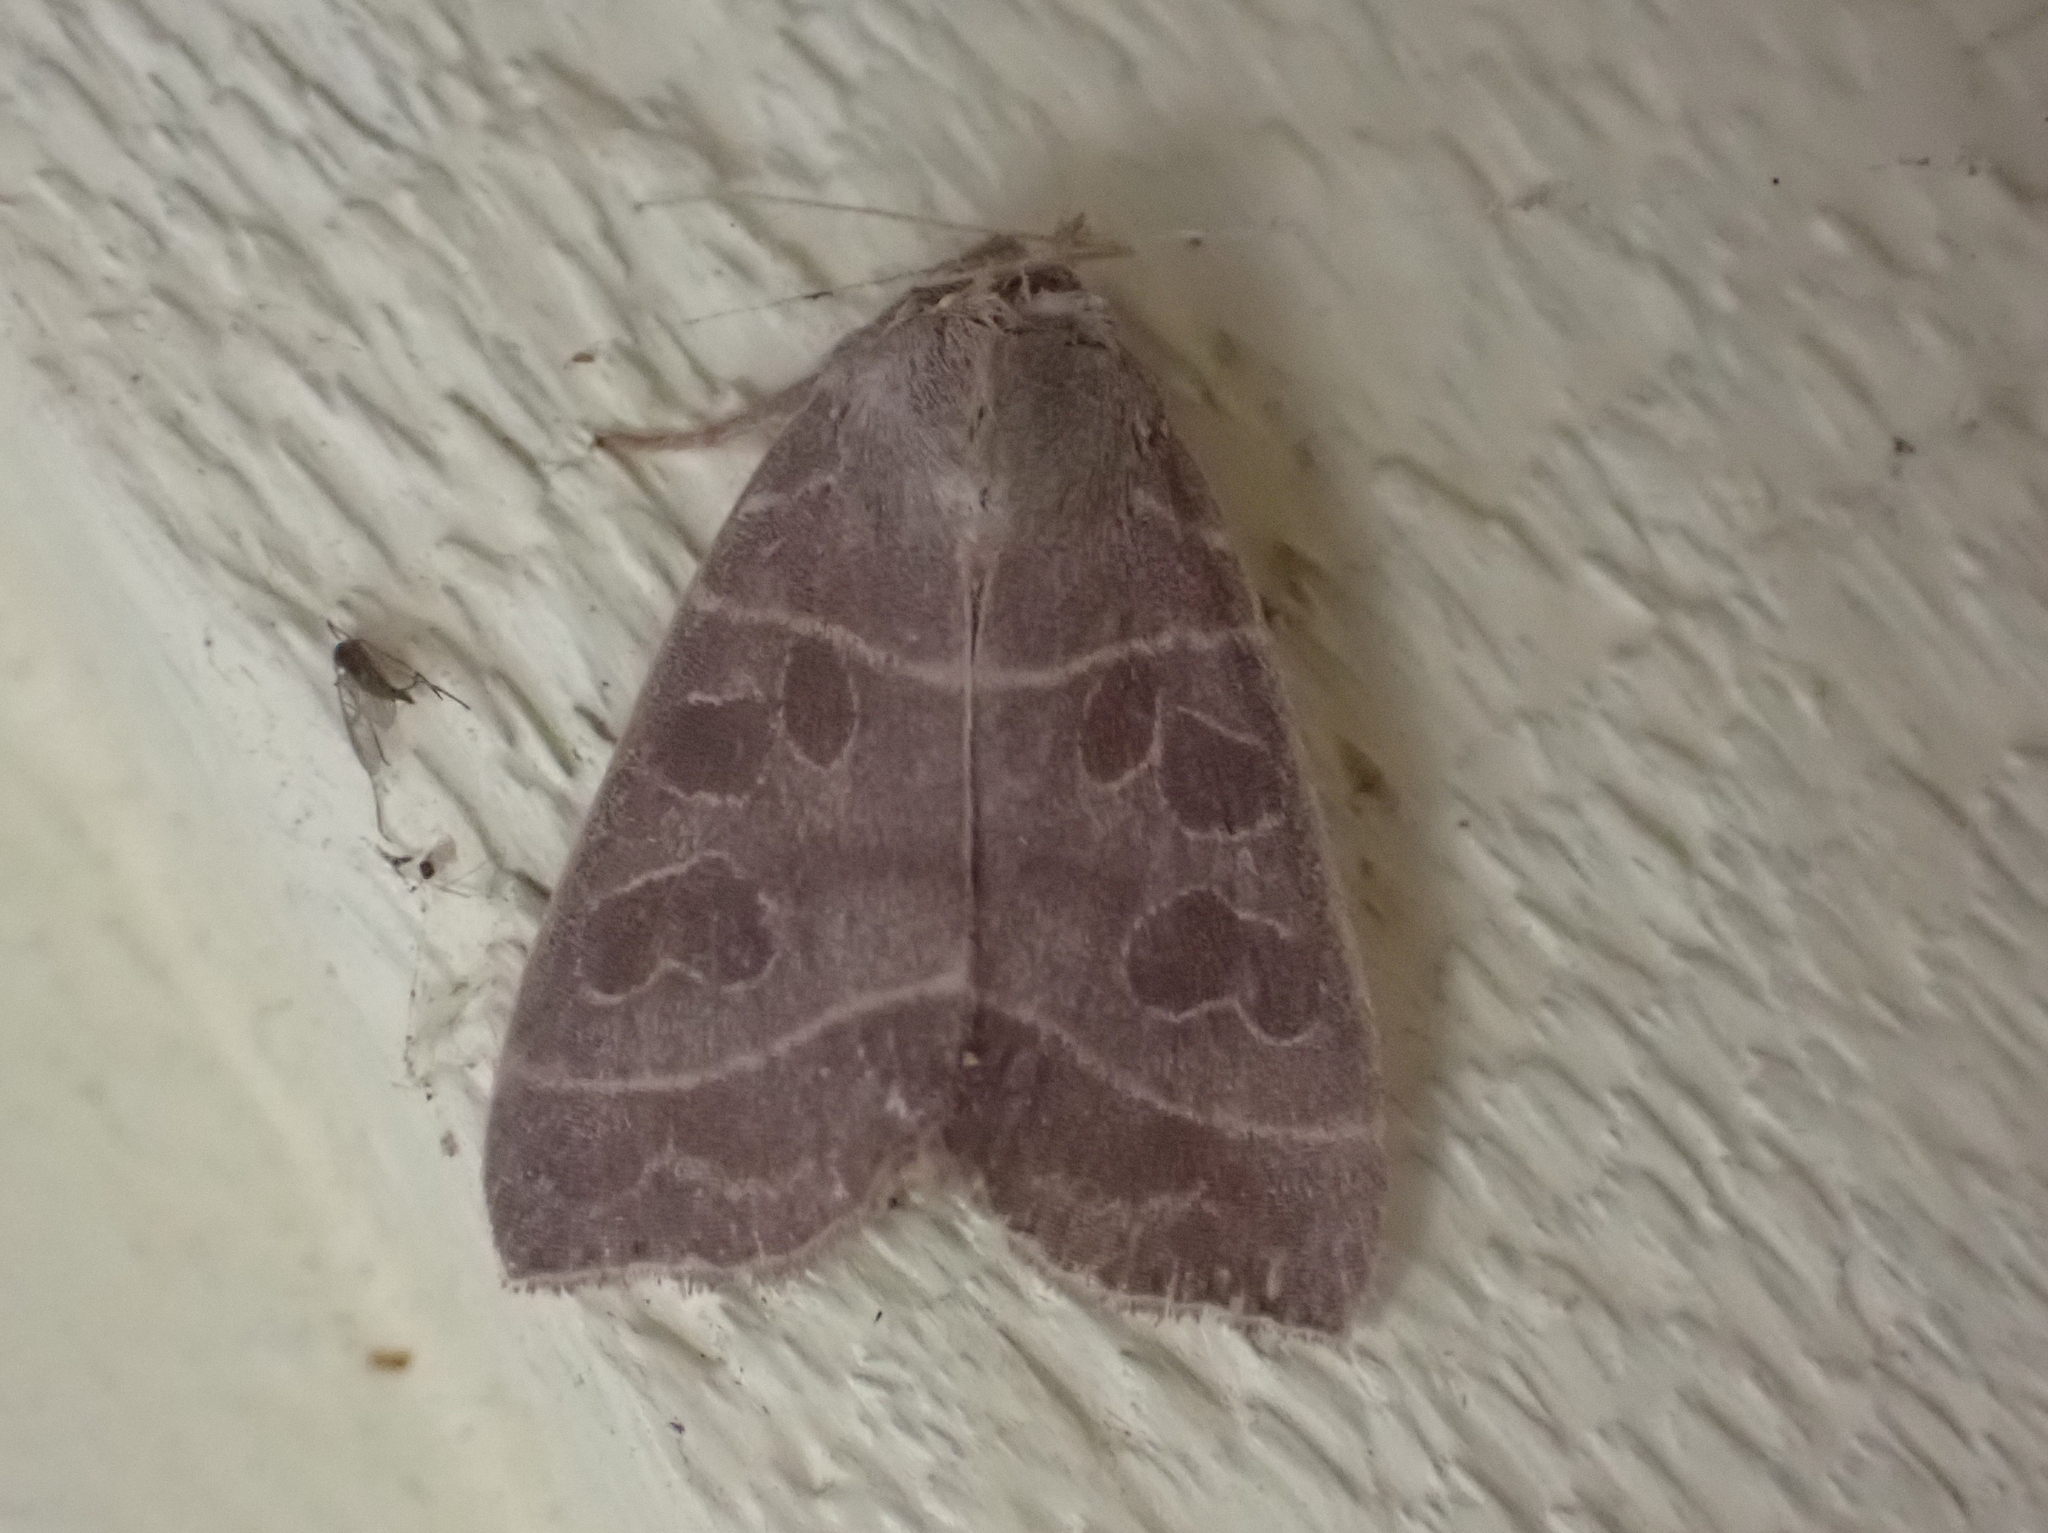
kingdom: Animalia
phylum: Arthropoda
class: Insecta
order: Lepidoptera
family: Noctuidae
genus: Ipimorpha
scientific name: Ipimorpha pleonectusa
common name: Even-lined sallow
